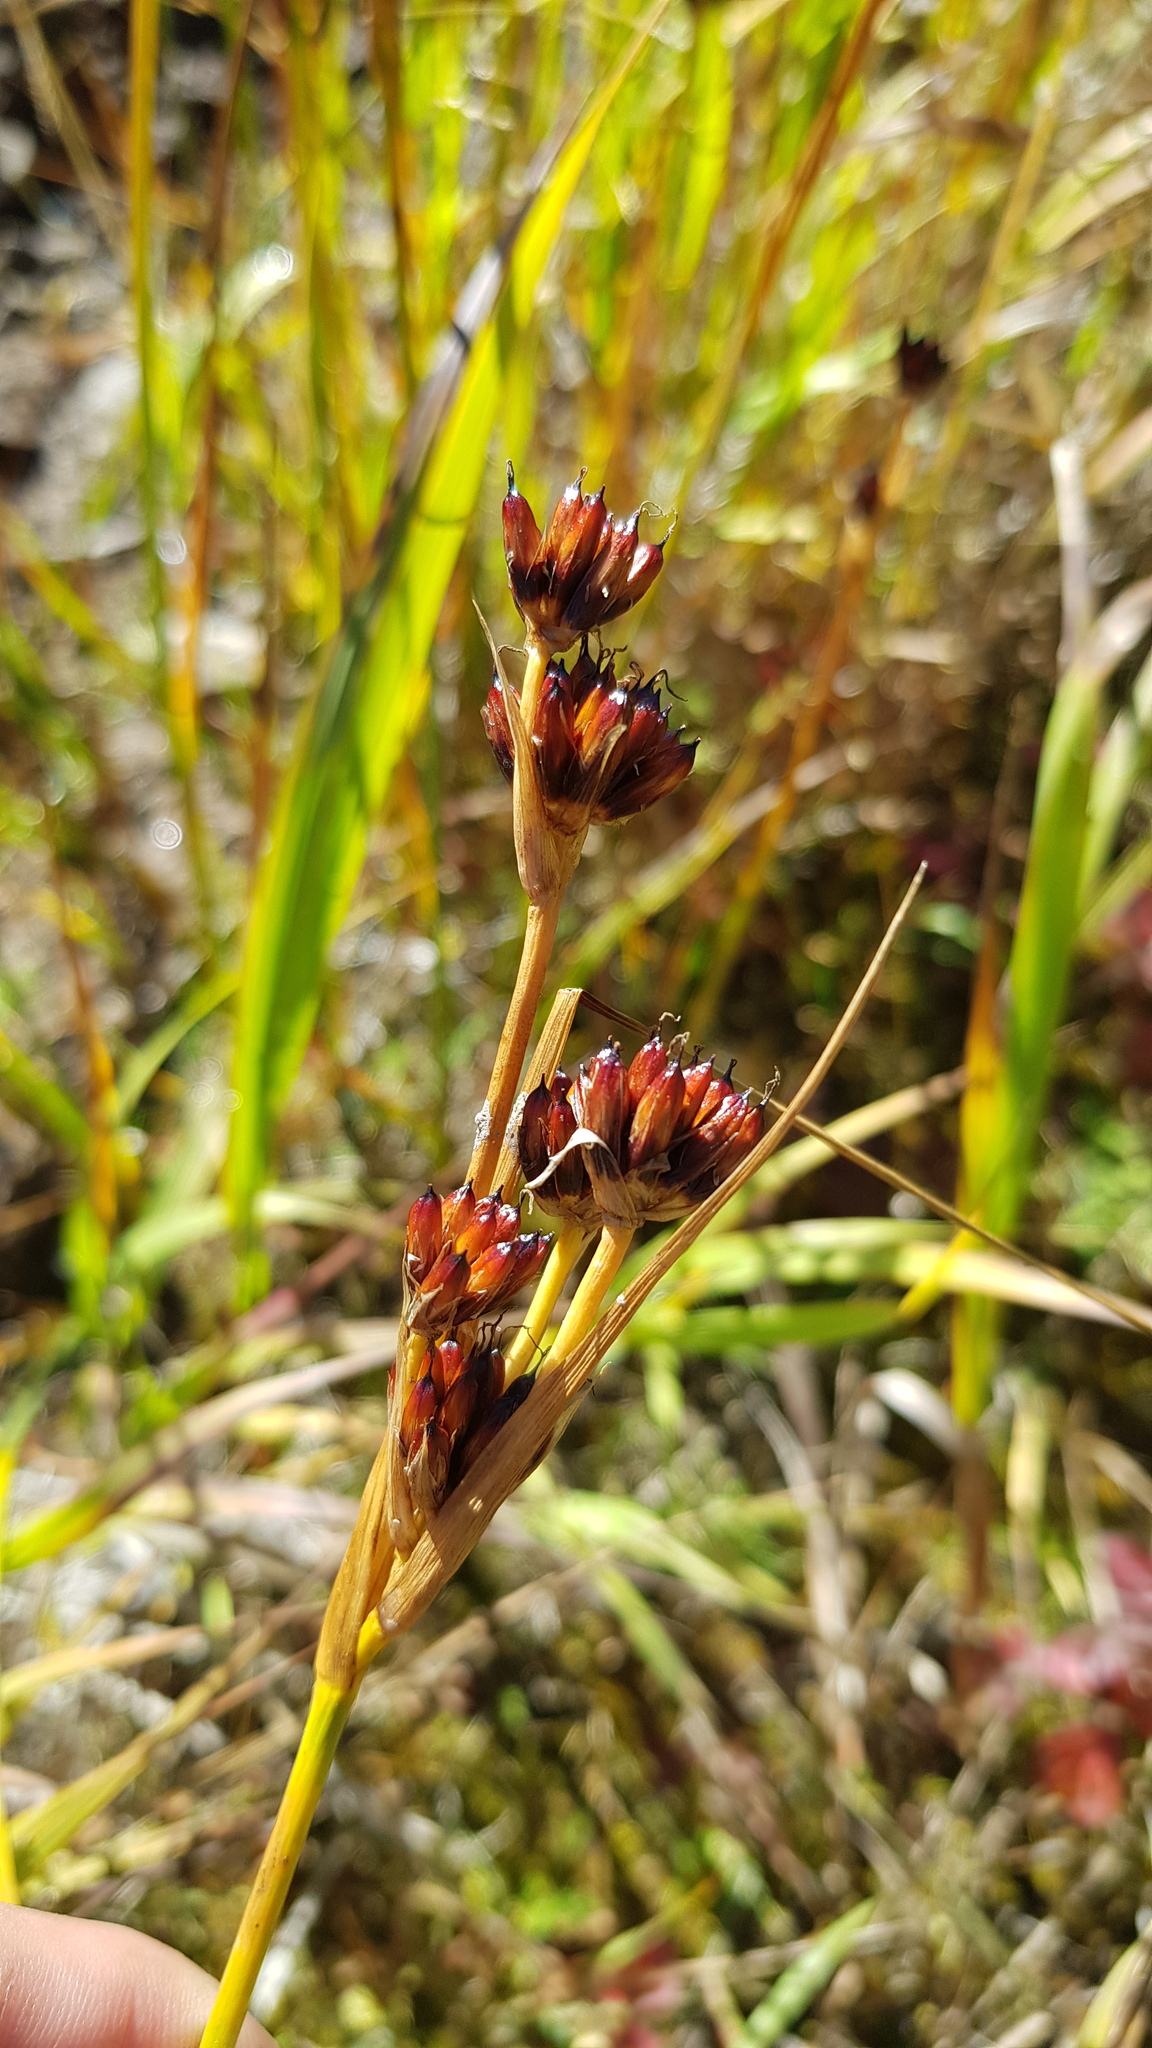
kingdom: Plantae
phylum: Tracheophyta
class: Liliopsida
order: Poales
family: Juncaceae
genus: Juncus
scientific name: Juncus castaneus
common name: Chestnut rush
